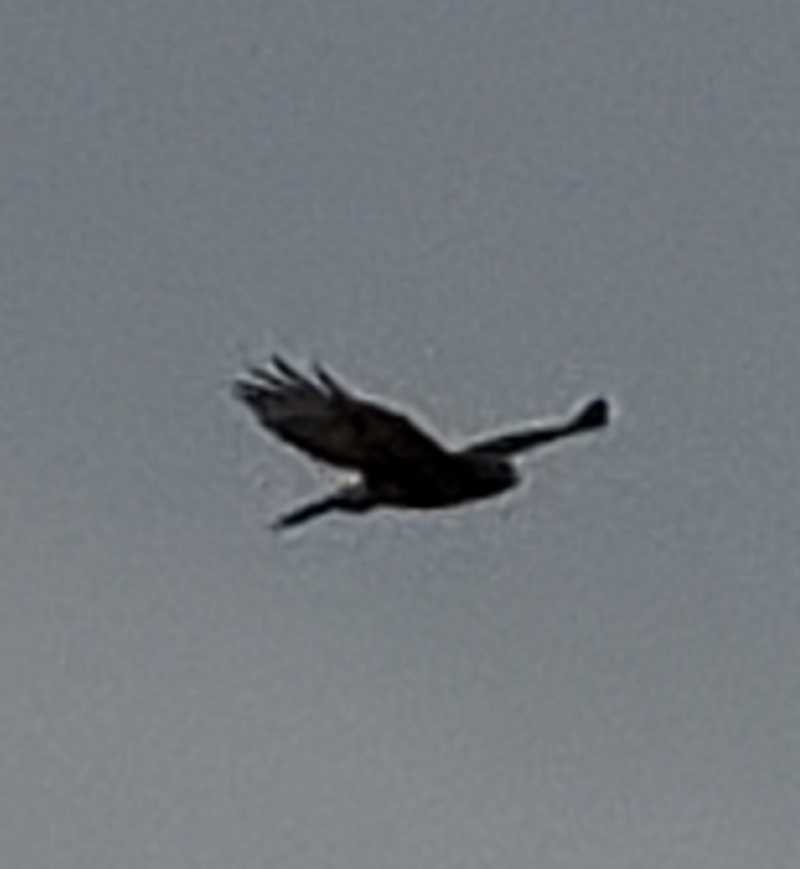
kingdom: Animalia
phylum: Chordata
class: Aves
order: Accipitriformes
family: Accipitridae
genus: Buteo
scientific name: Buteo jamaicensis
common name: Red-tailed hawk
